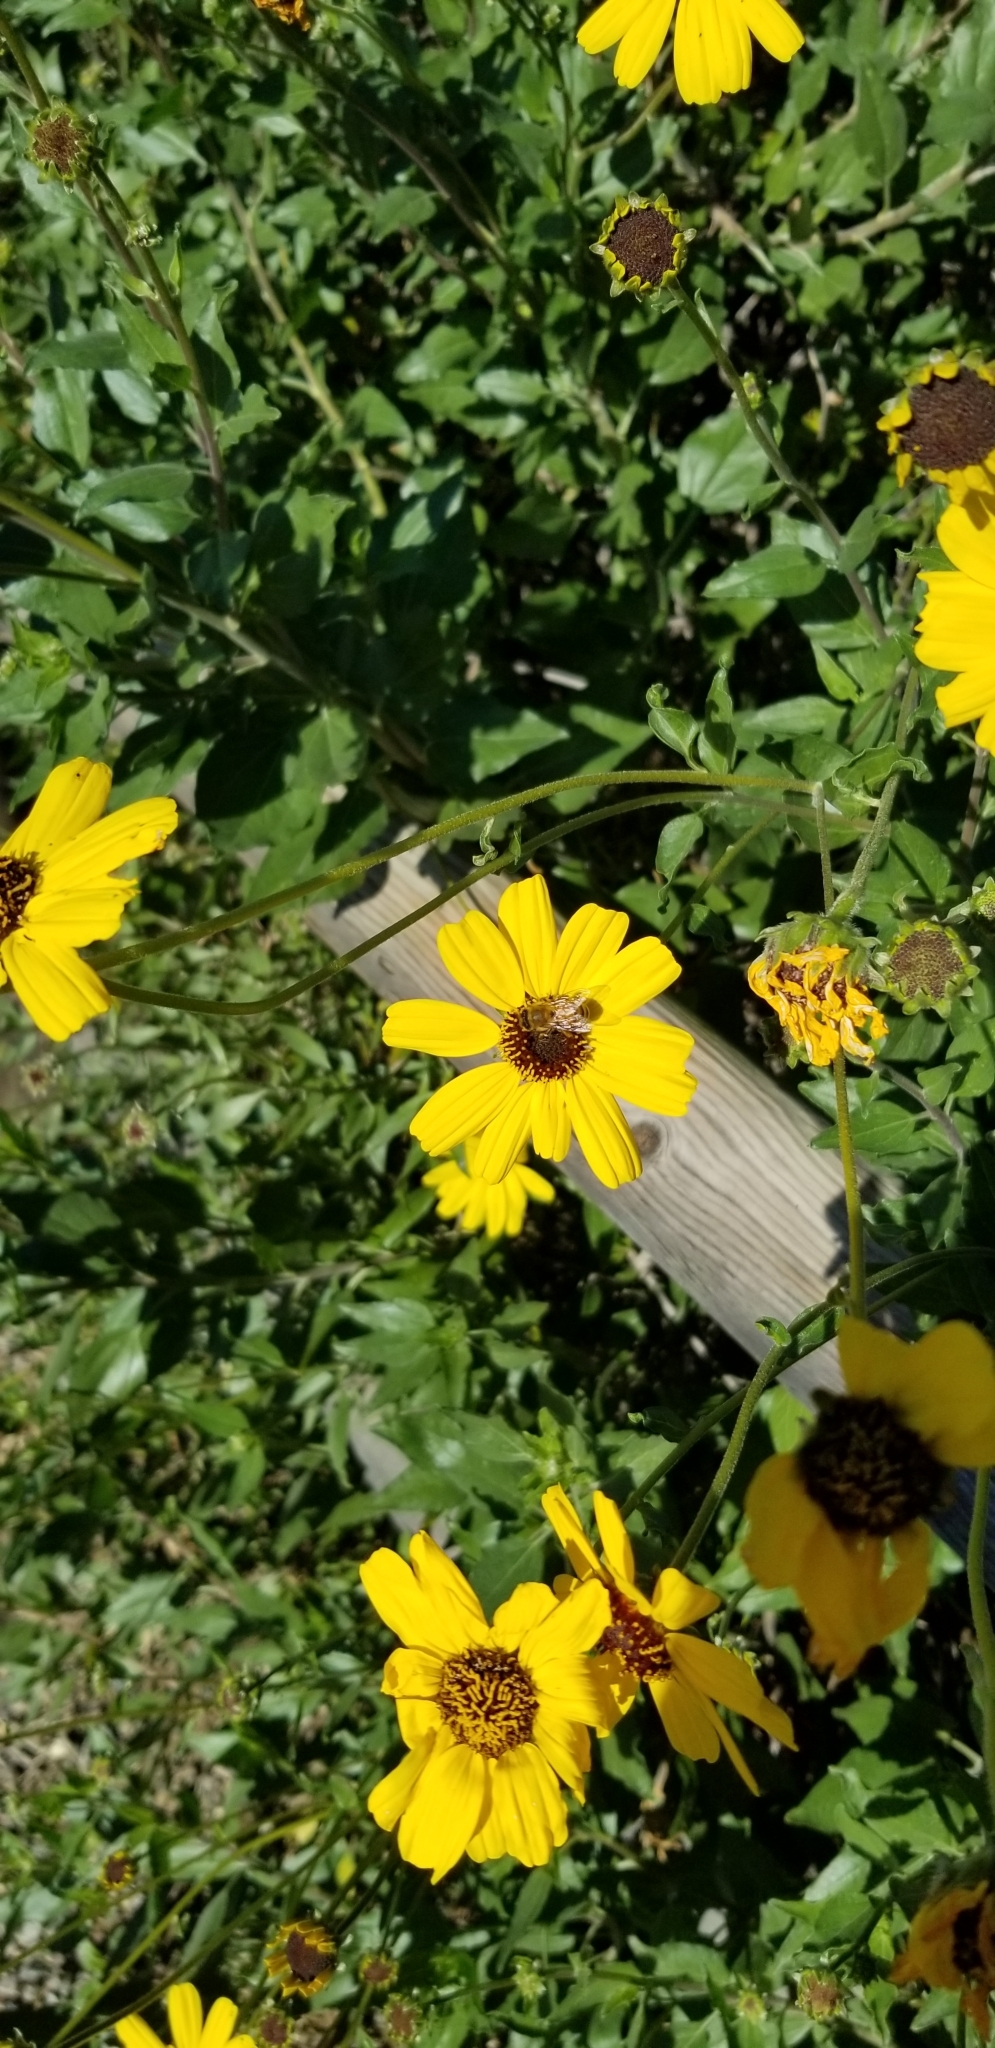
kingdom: Plantae
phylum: Tracheophyta
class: Magnoliopsida
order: Asterales
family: Asteraceae
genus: Encelia
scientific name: Encelia californica
